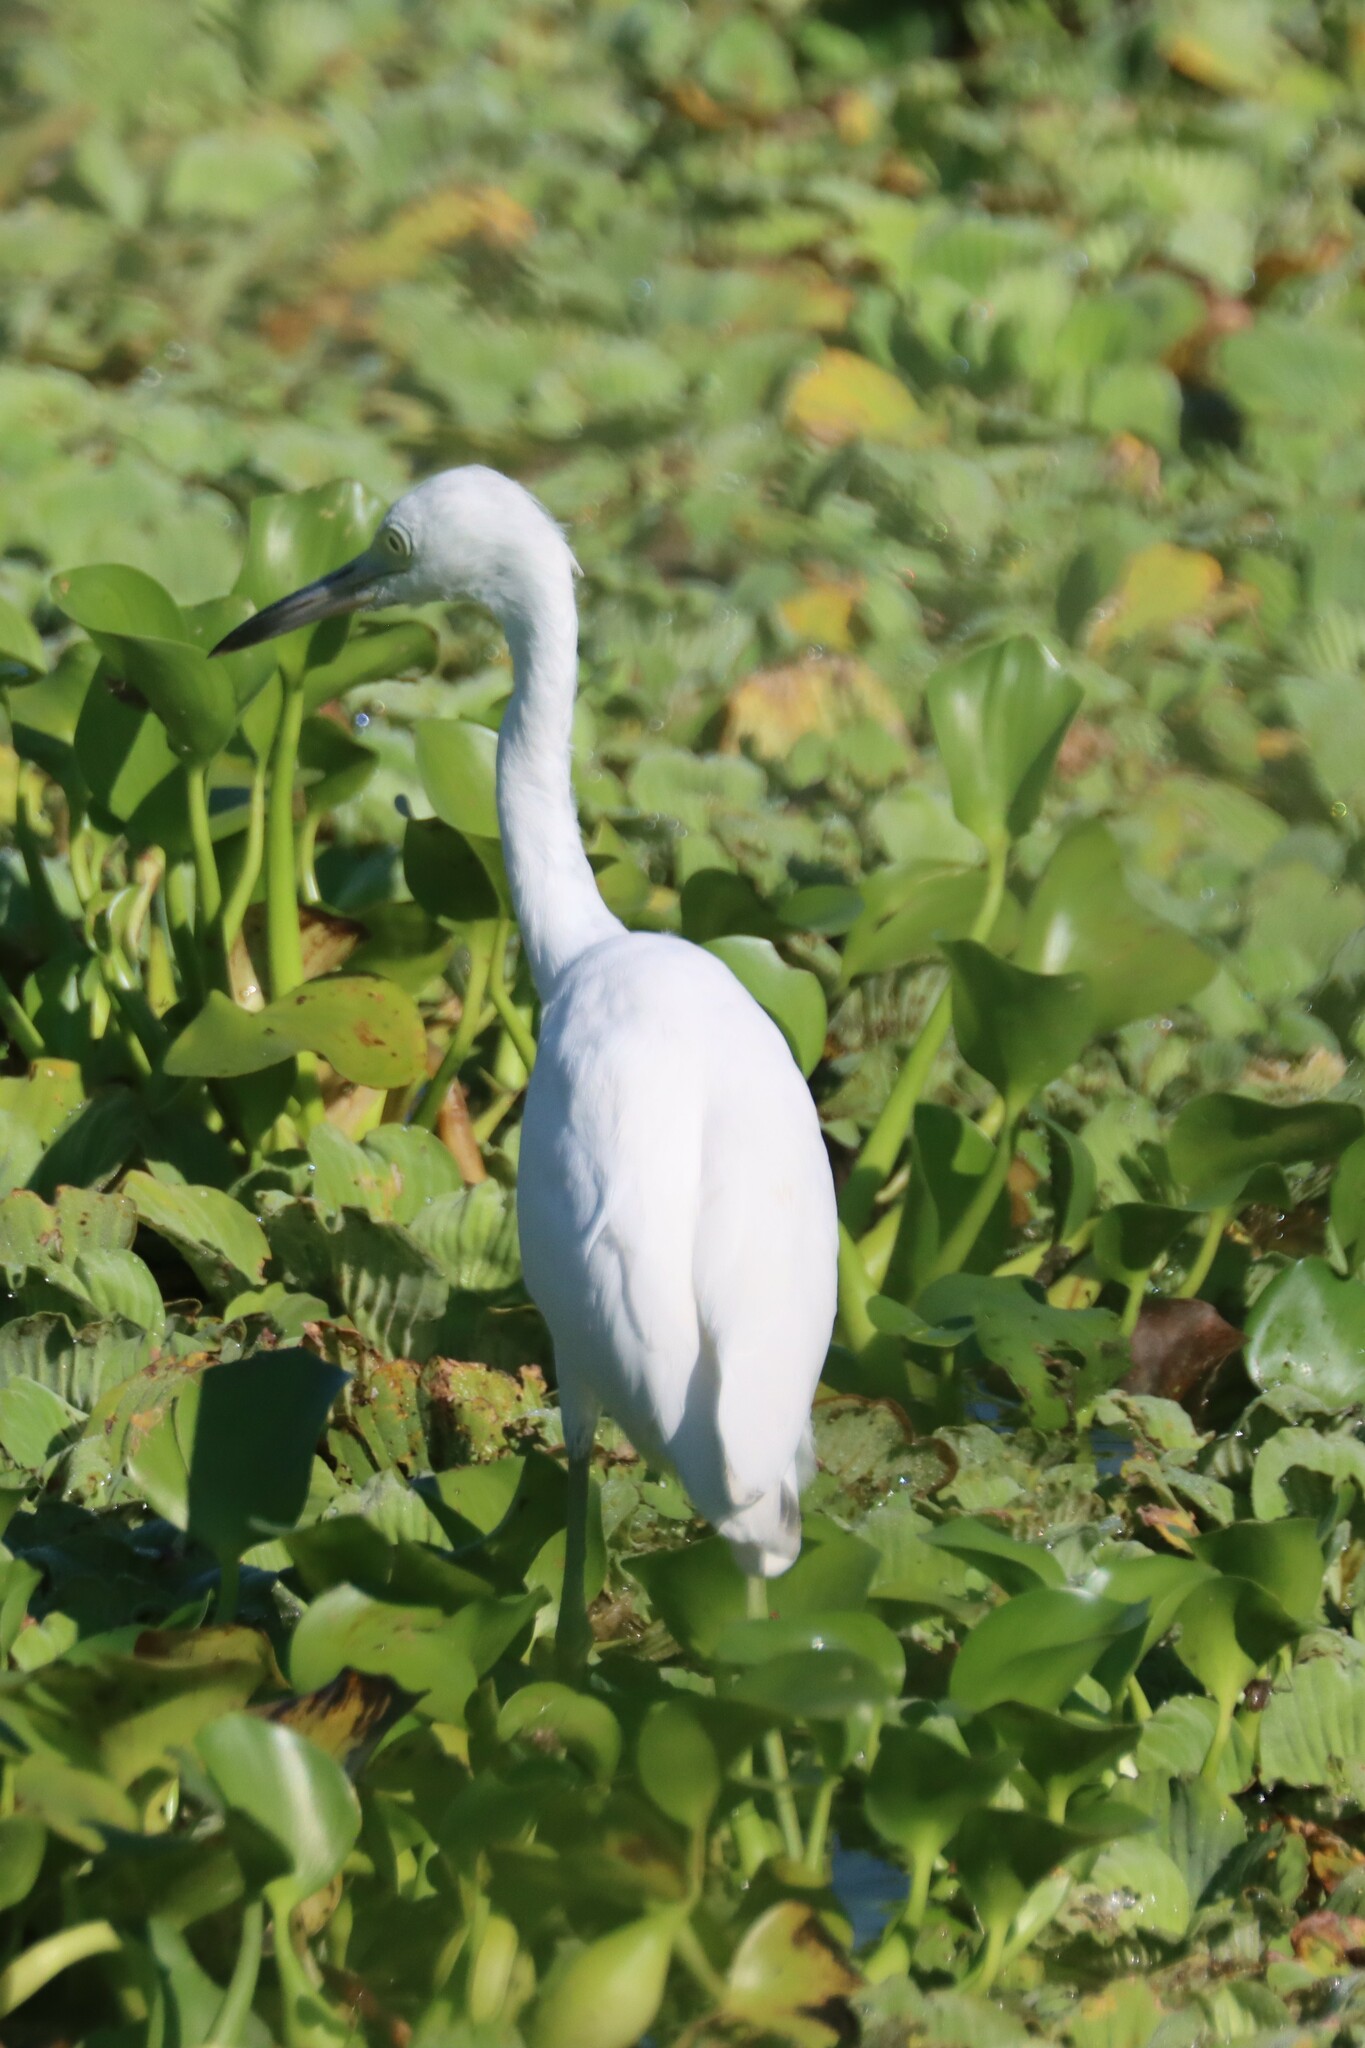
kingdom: Animalia
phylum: Chordata
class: Aves
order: Pelecaniformes
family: Ardeidae
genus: Egretta
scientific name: Egretta caerulea
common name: Little blue heron
